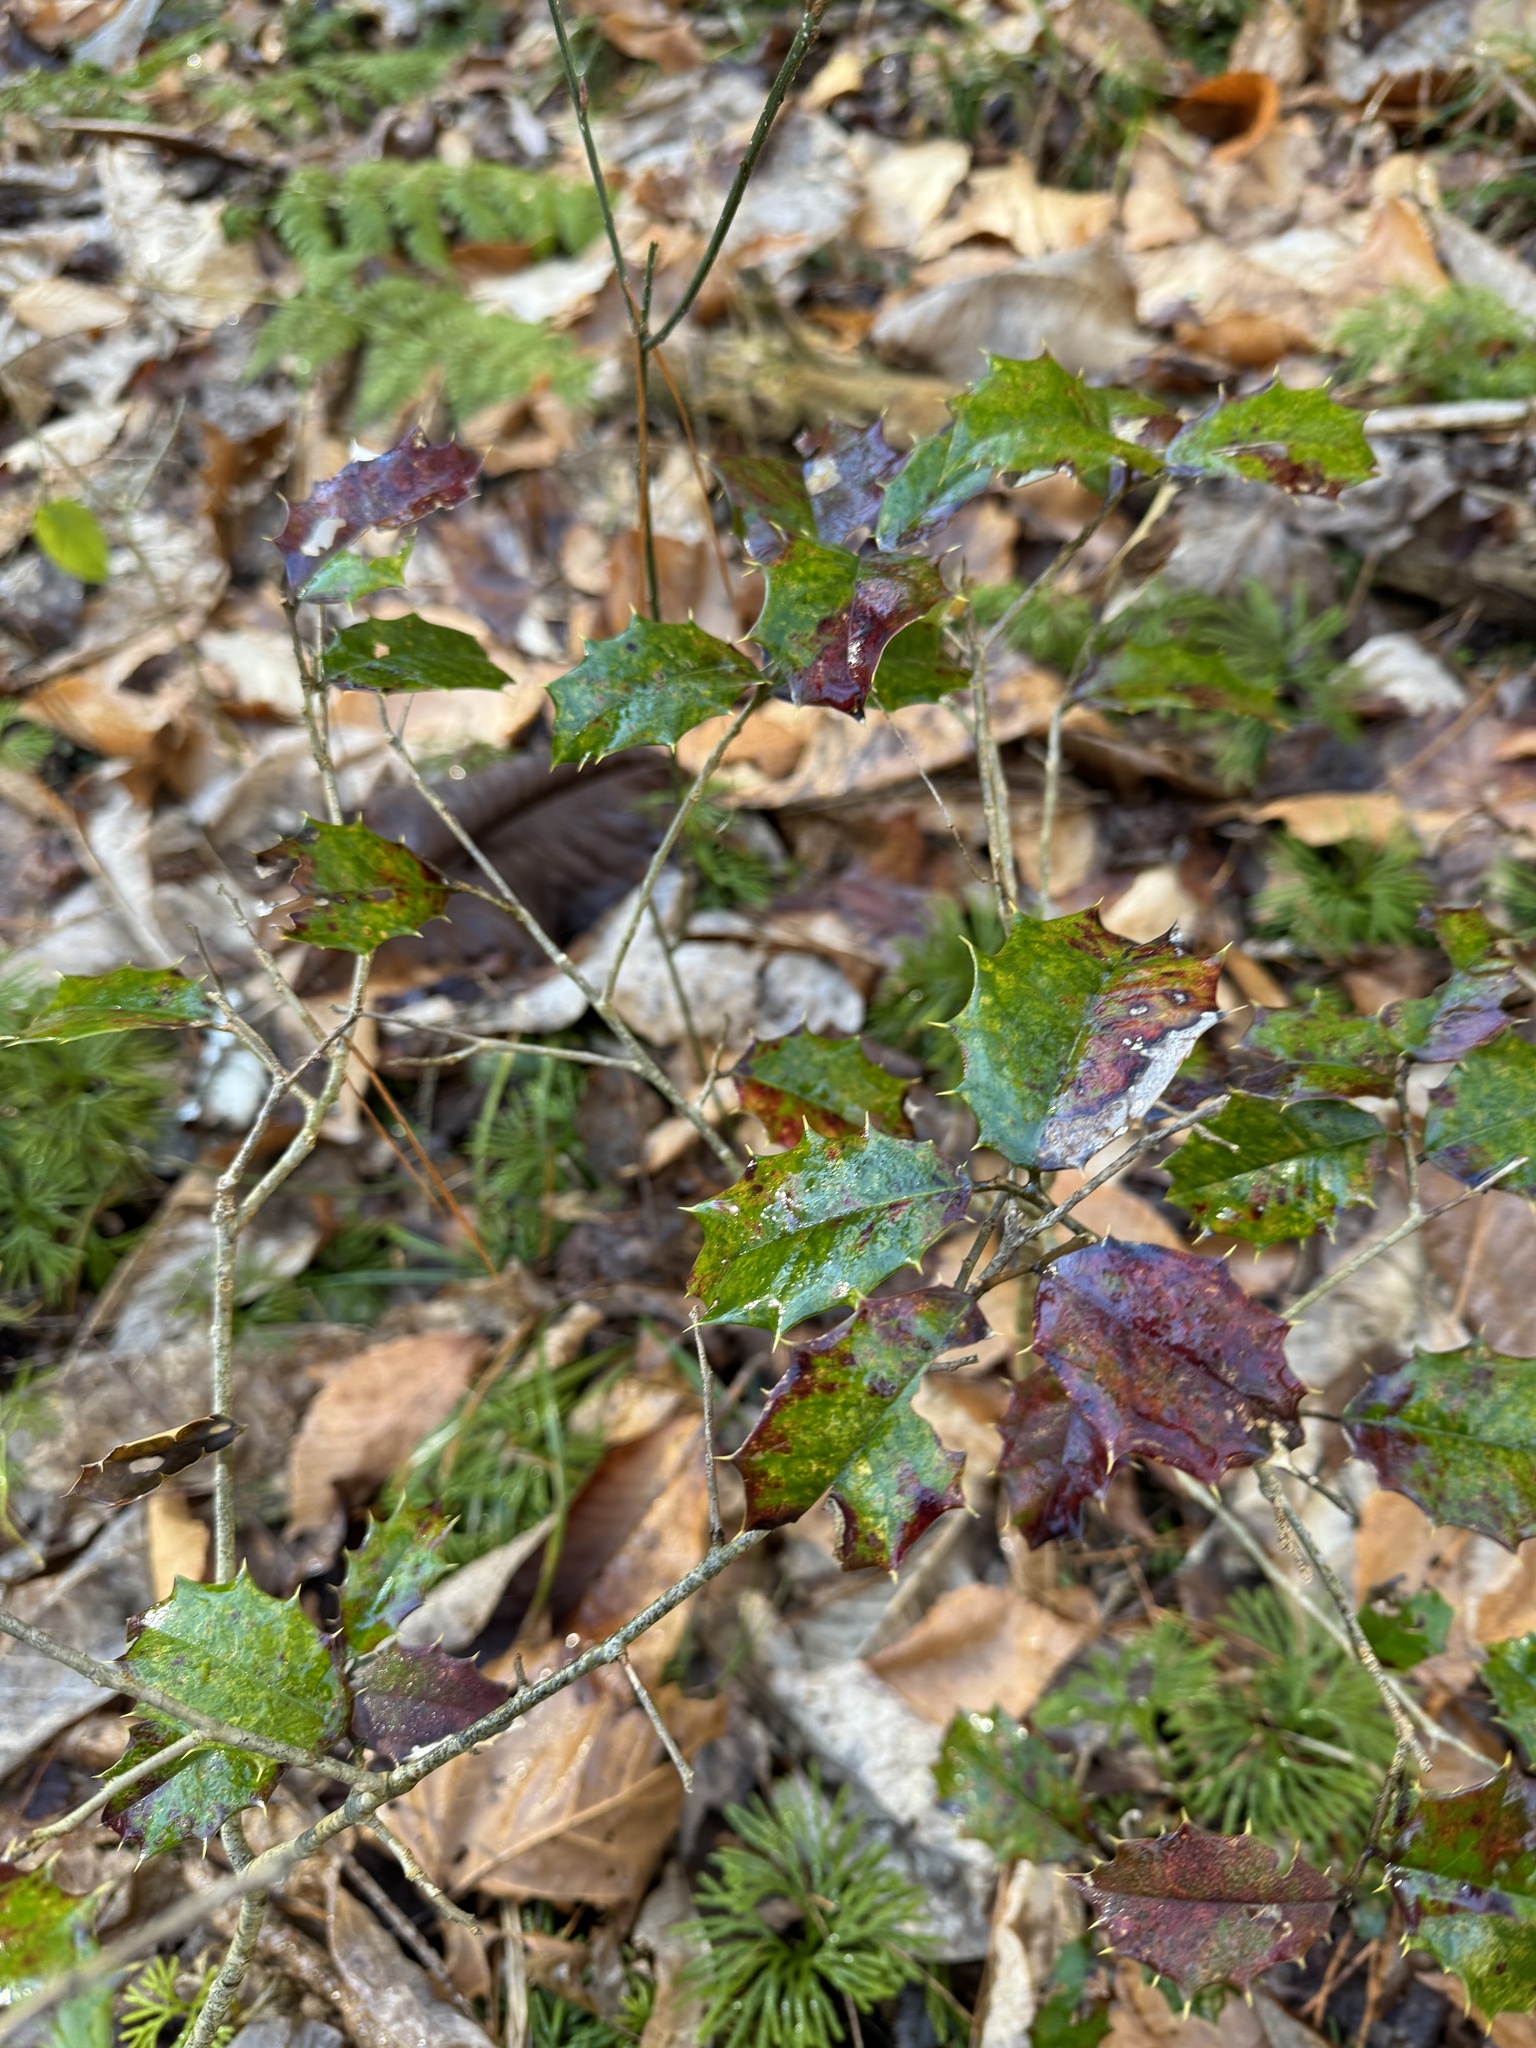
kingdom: Plantae
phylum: Tracheophyta
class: Magnoliopsida
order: Aquifoliales
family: Aquifoliaceae
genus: Ilex
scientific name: Ilex opaca
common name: American holly
